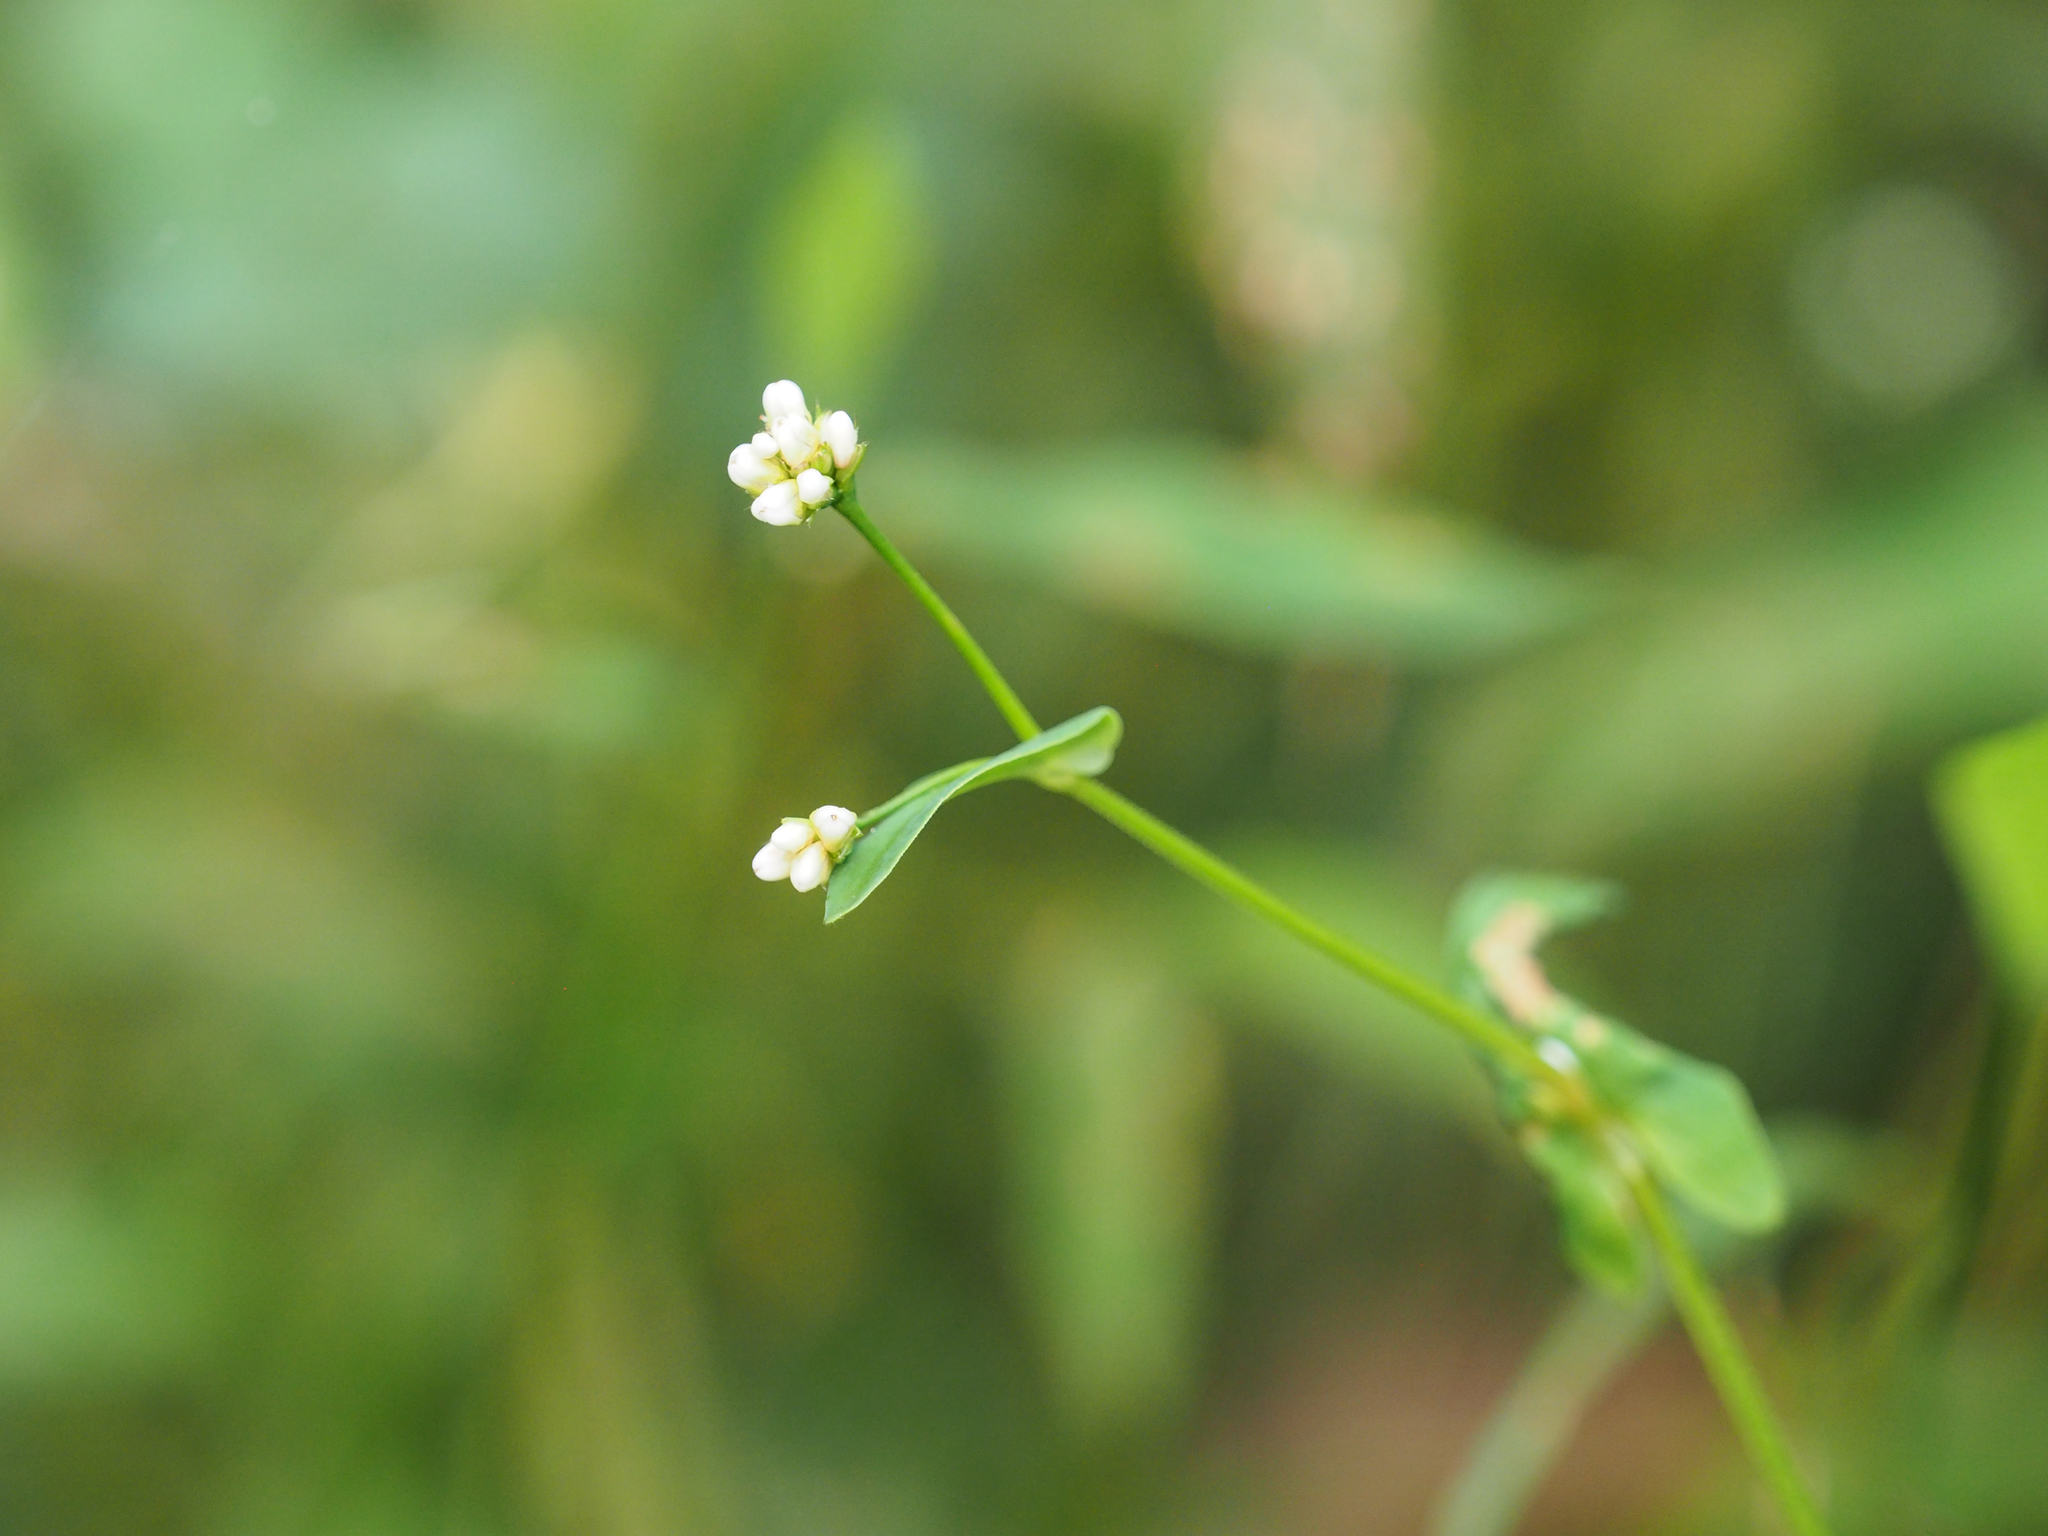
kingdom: Plantae
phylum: Tracheophyta
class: Magnoliopsida
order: Caryophyllales
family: Polygonaceae
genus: Persicaria
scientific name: Persicaria sagittata
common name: American tearthumb
